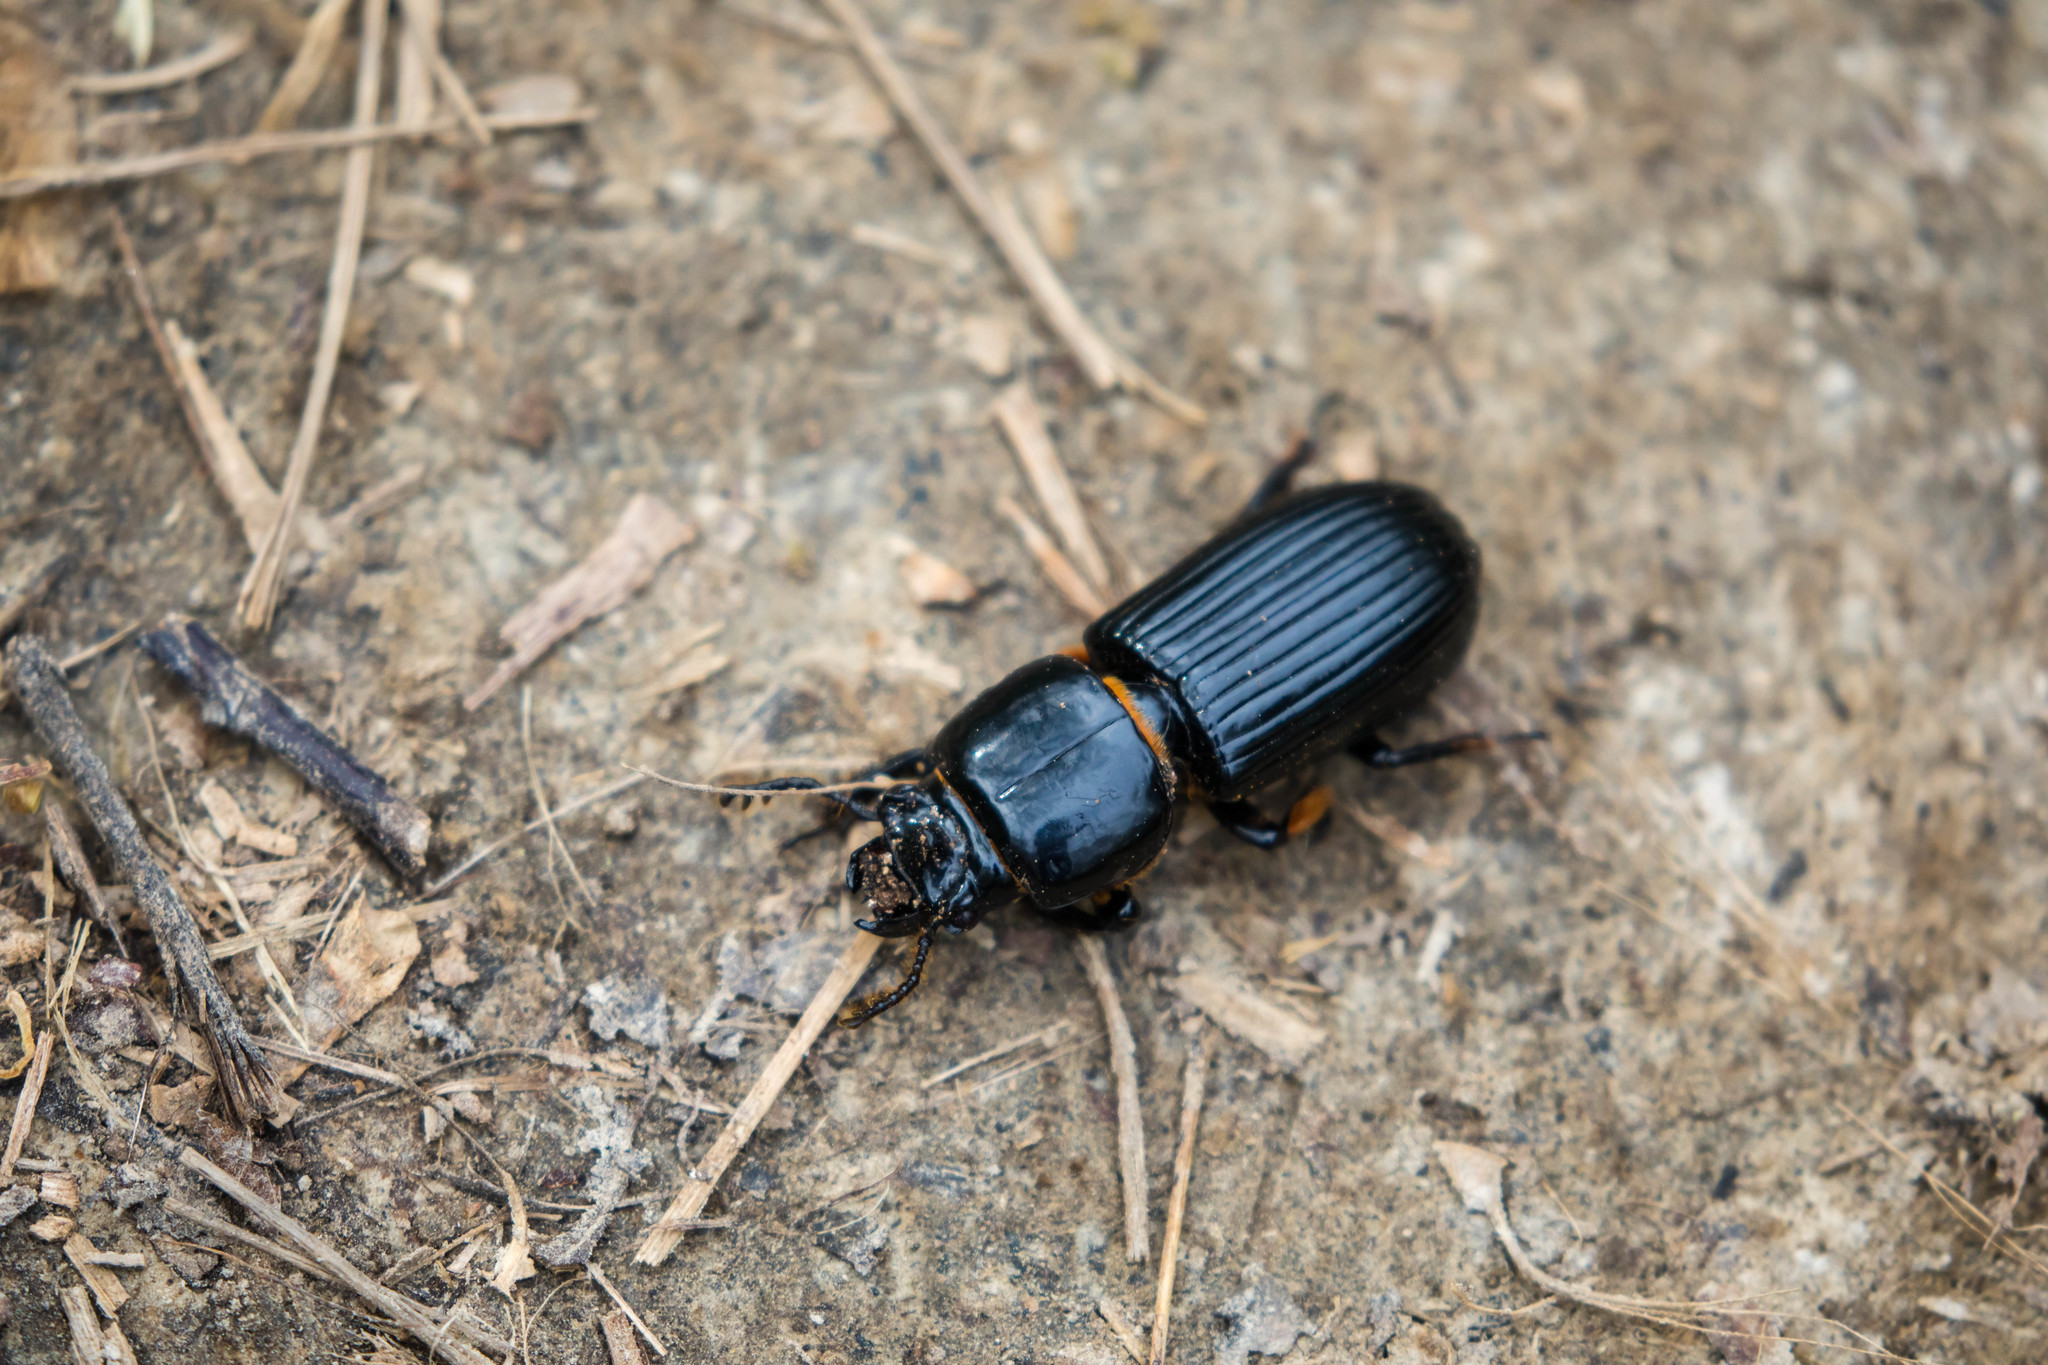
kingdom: Animalia
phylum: Arthropoda
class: Insecta
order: Coleoptera
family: Passalidae
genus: Odontotaenius
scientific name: Odontotaenius disjunctus
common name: Patent leather beetle
